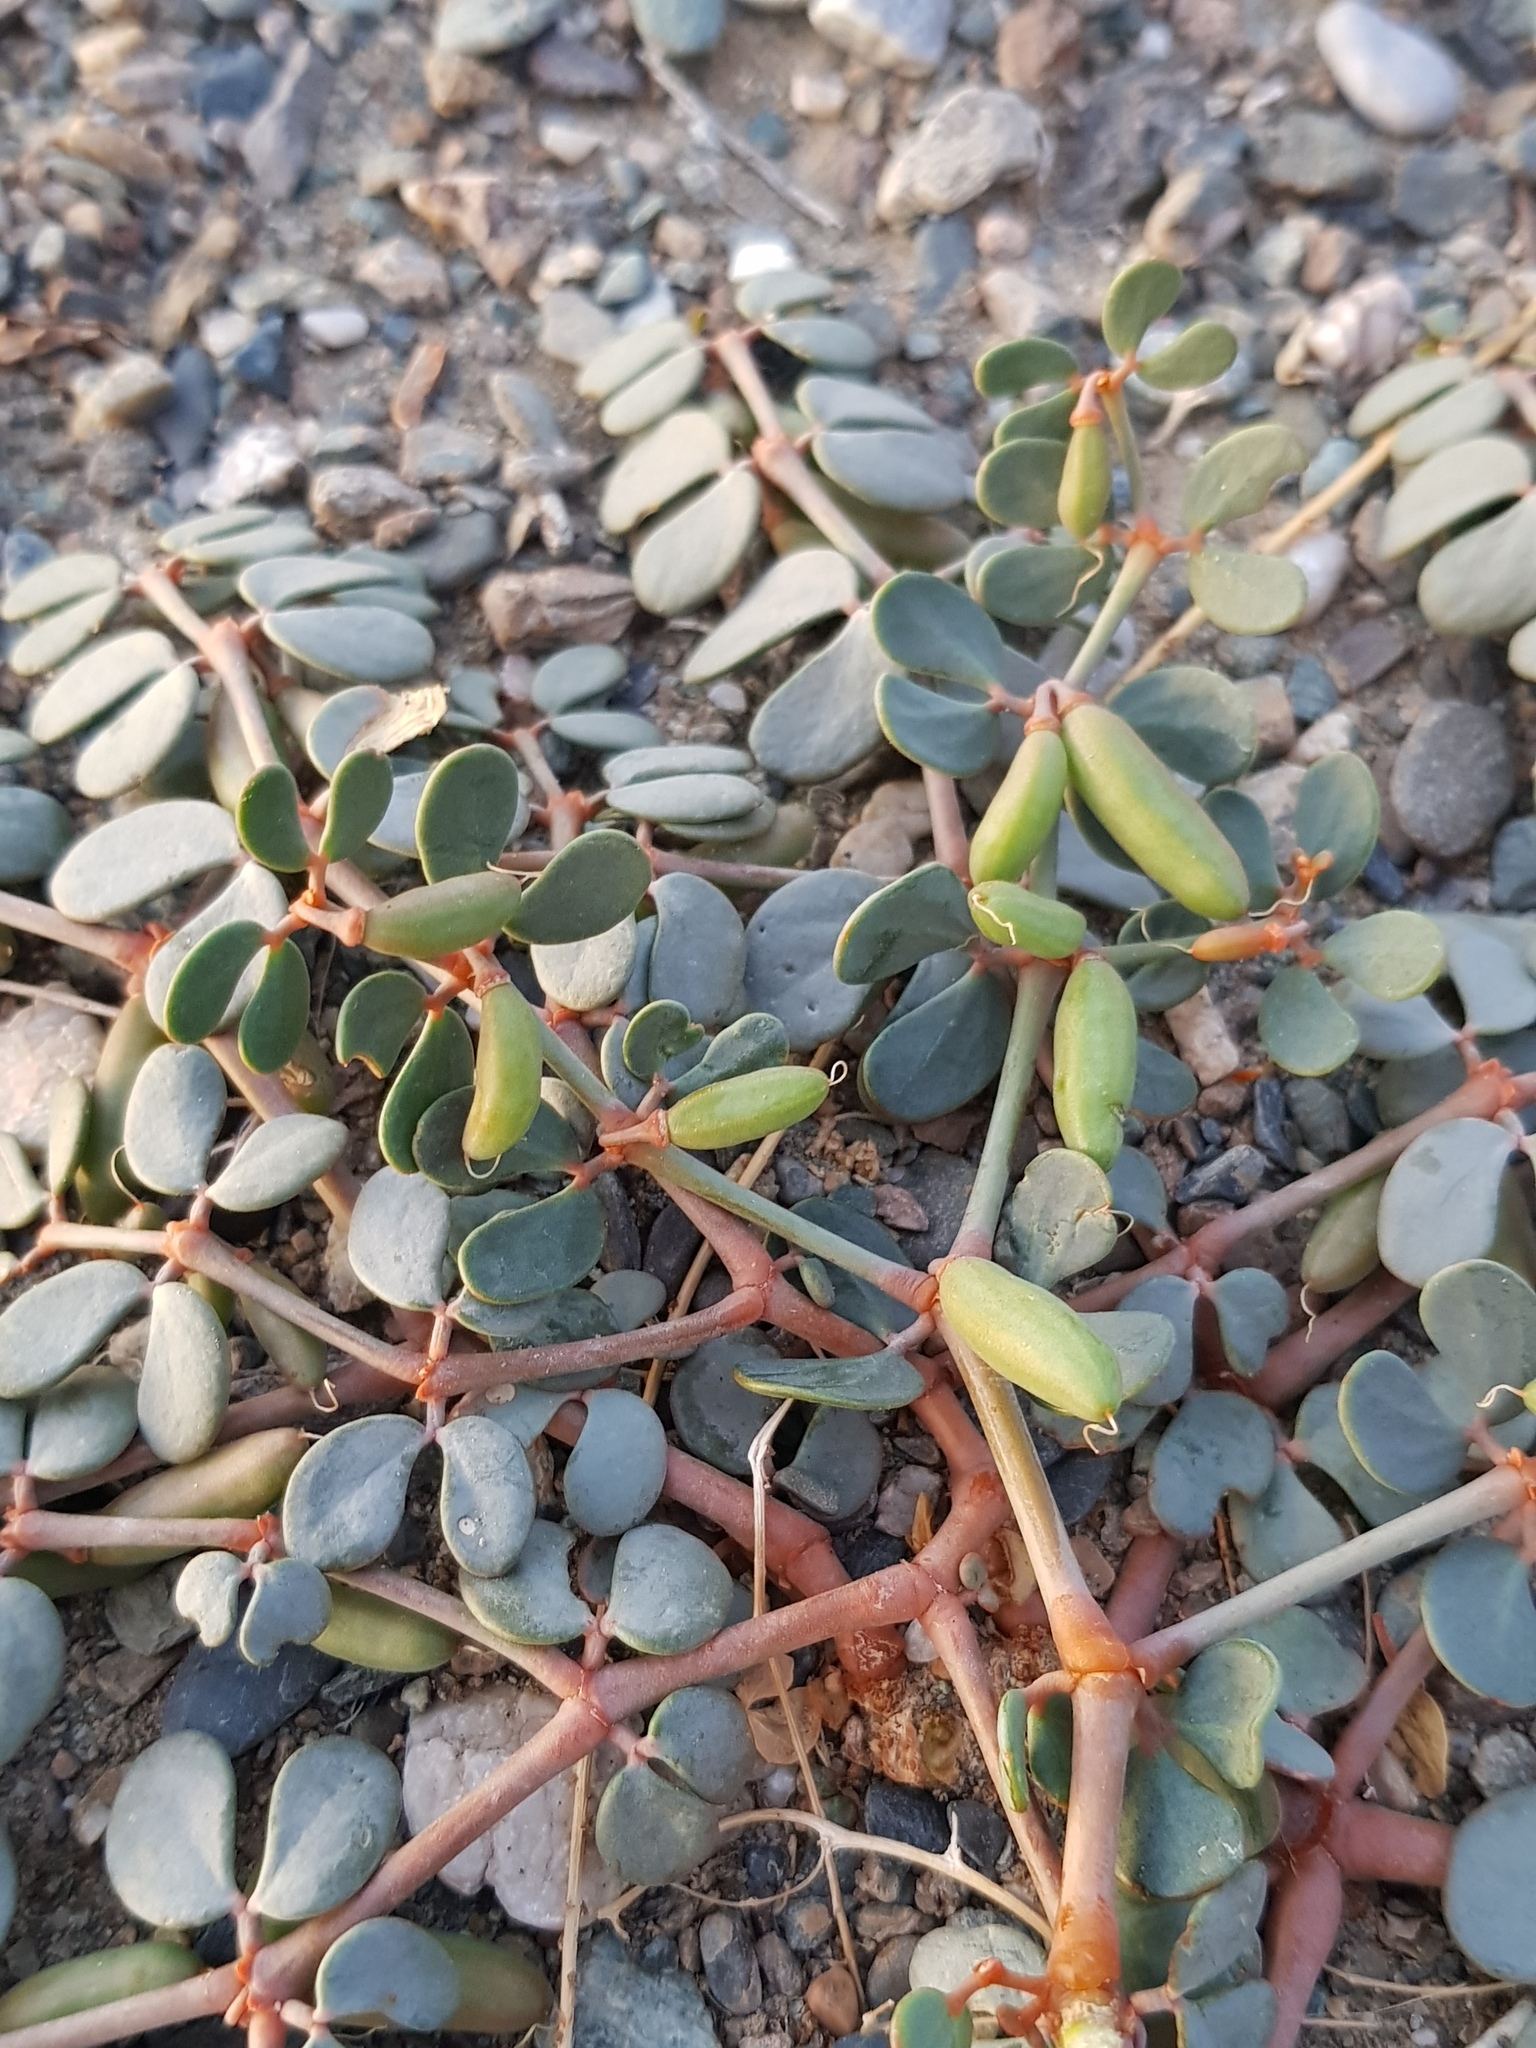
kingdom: Plantae
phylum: Tracheophyta
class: Magnoliopsida
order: Zygophyllales
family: Zygophyllaceae
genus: Zygophyllum
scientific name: Zygophyllum gobicum
